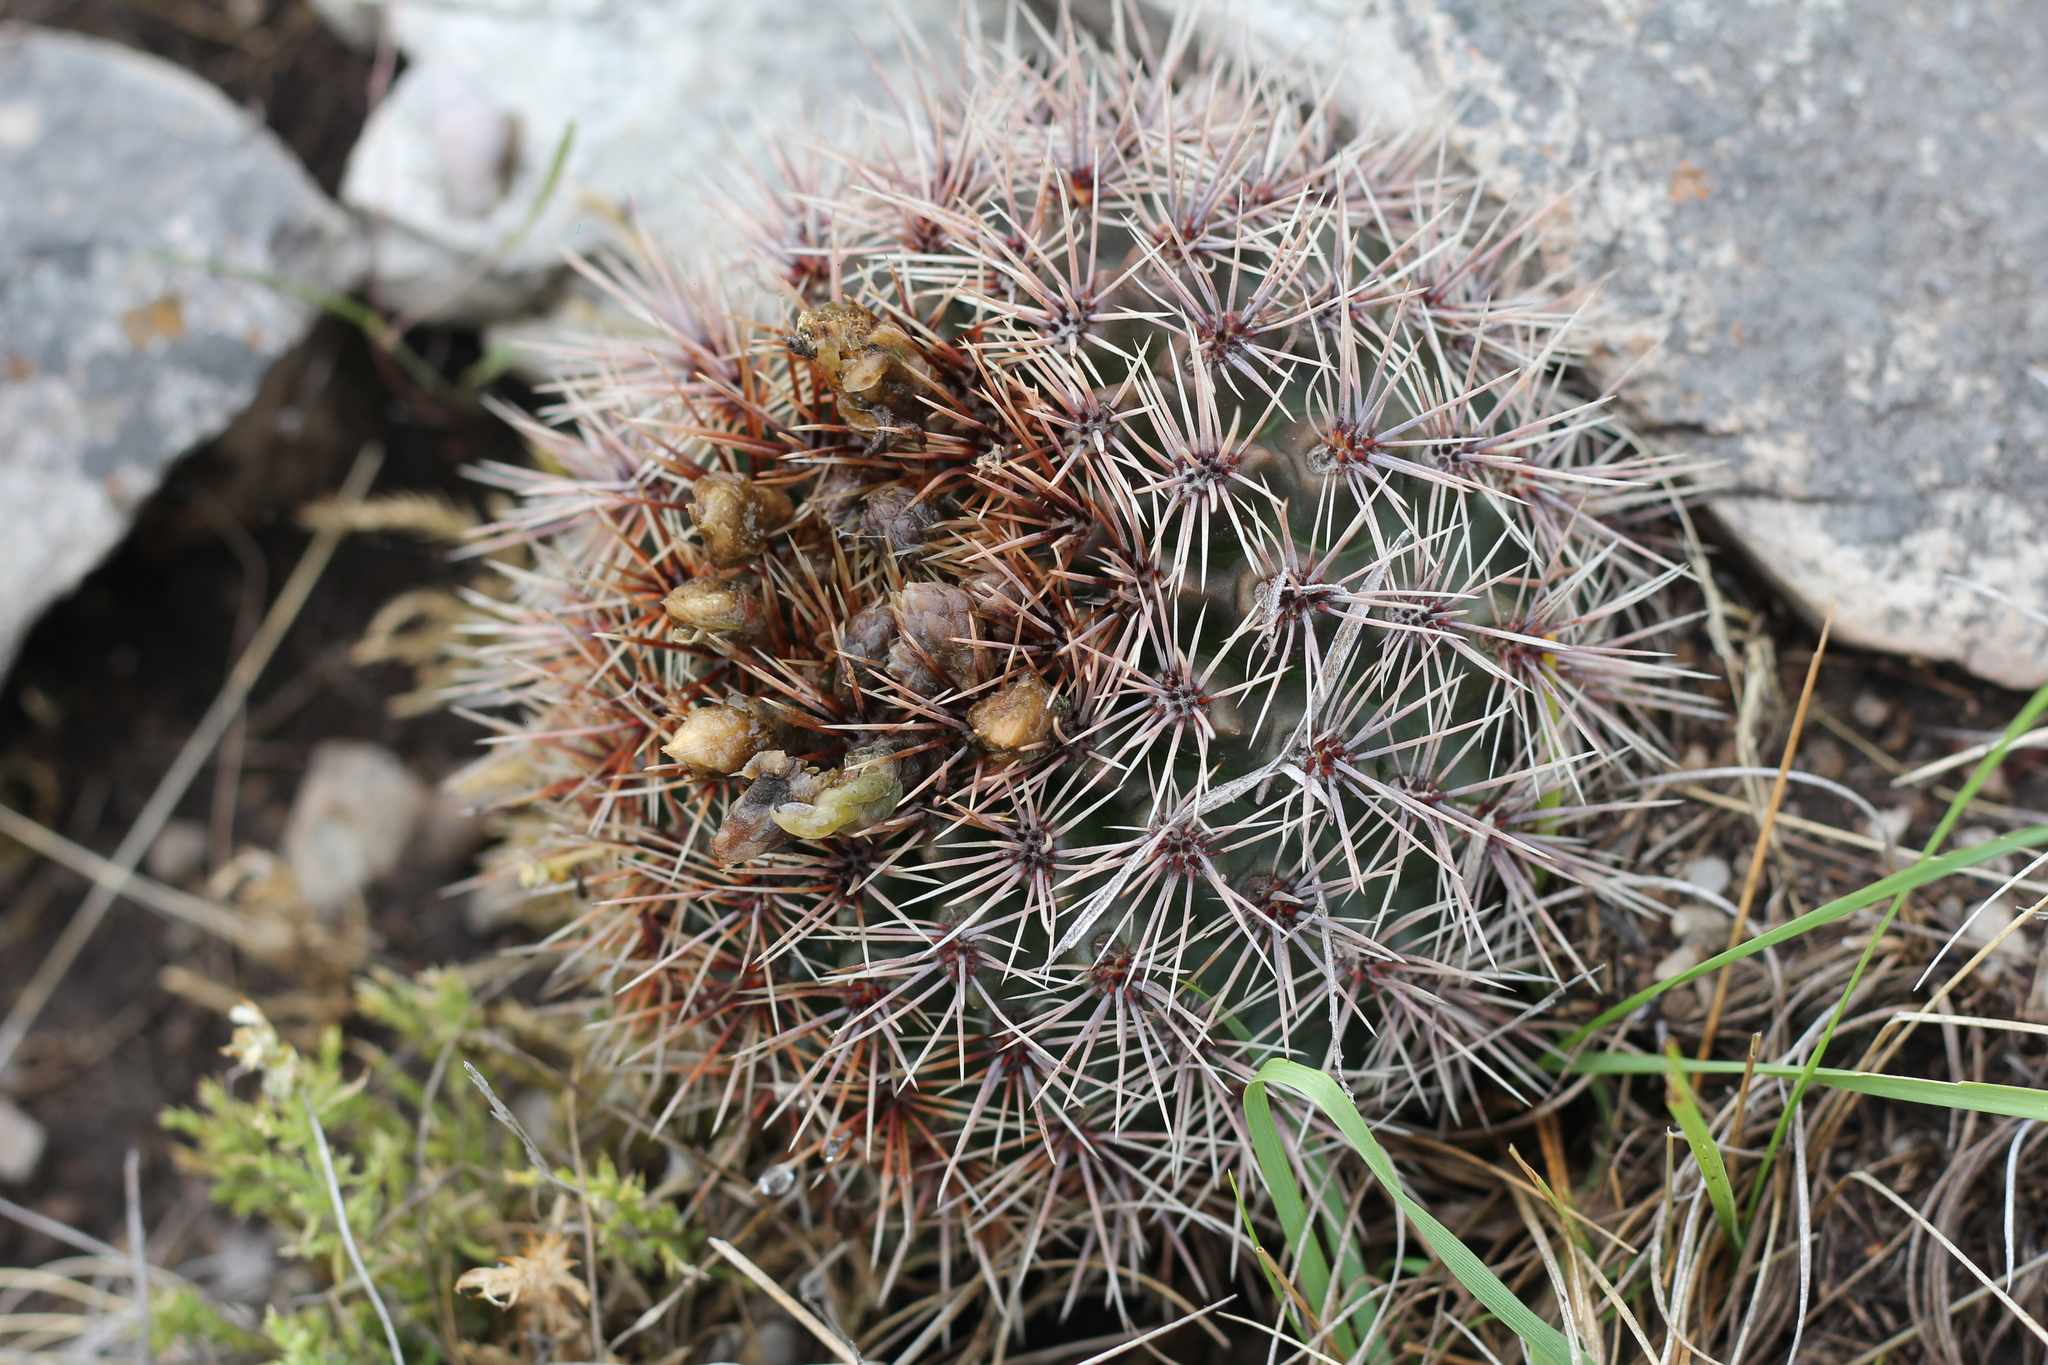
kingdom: Plantae
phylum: Tracheophyta
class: Magnoliopsida
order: Caryophyllales
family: Cactaceae
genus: Gymnocalycium
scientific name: Gymnocalycium reductum
